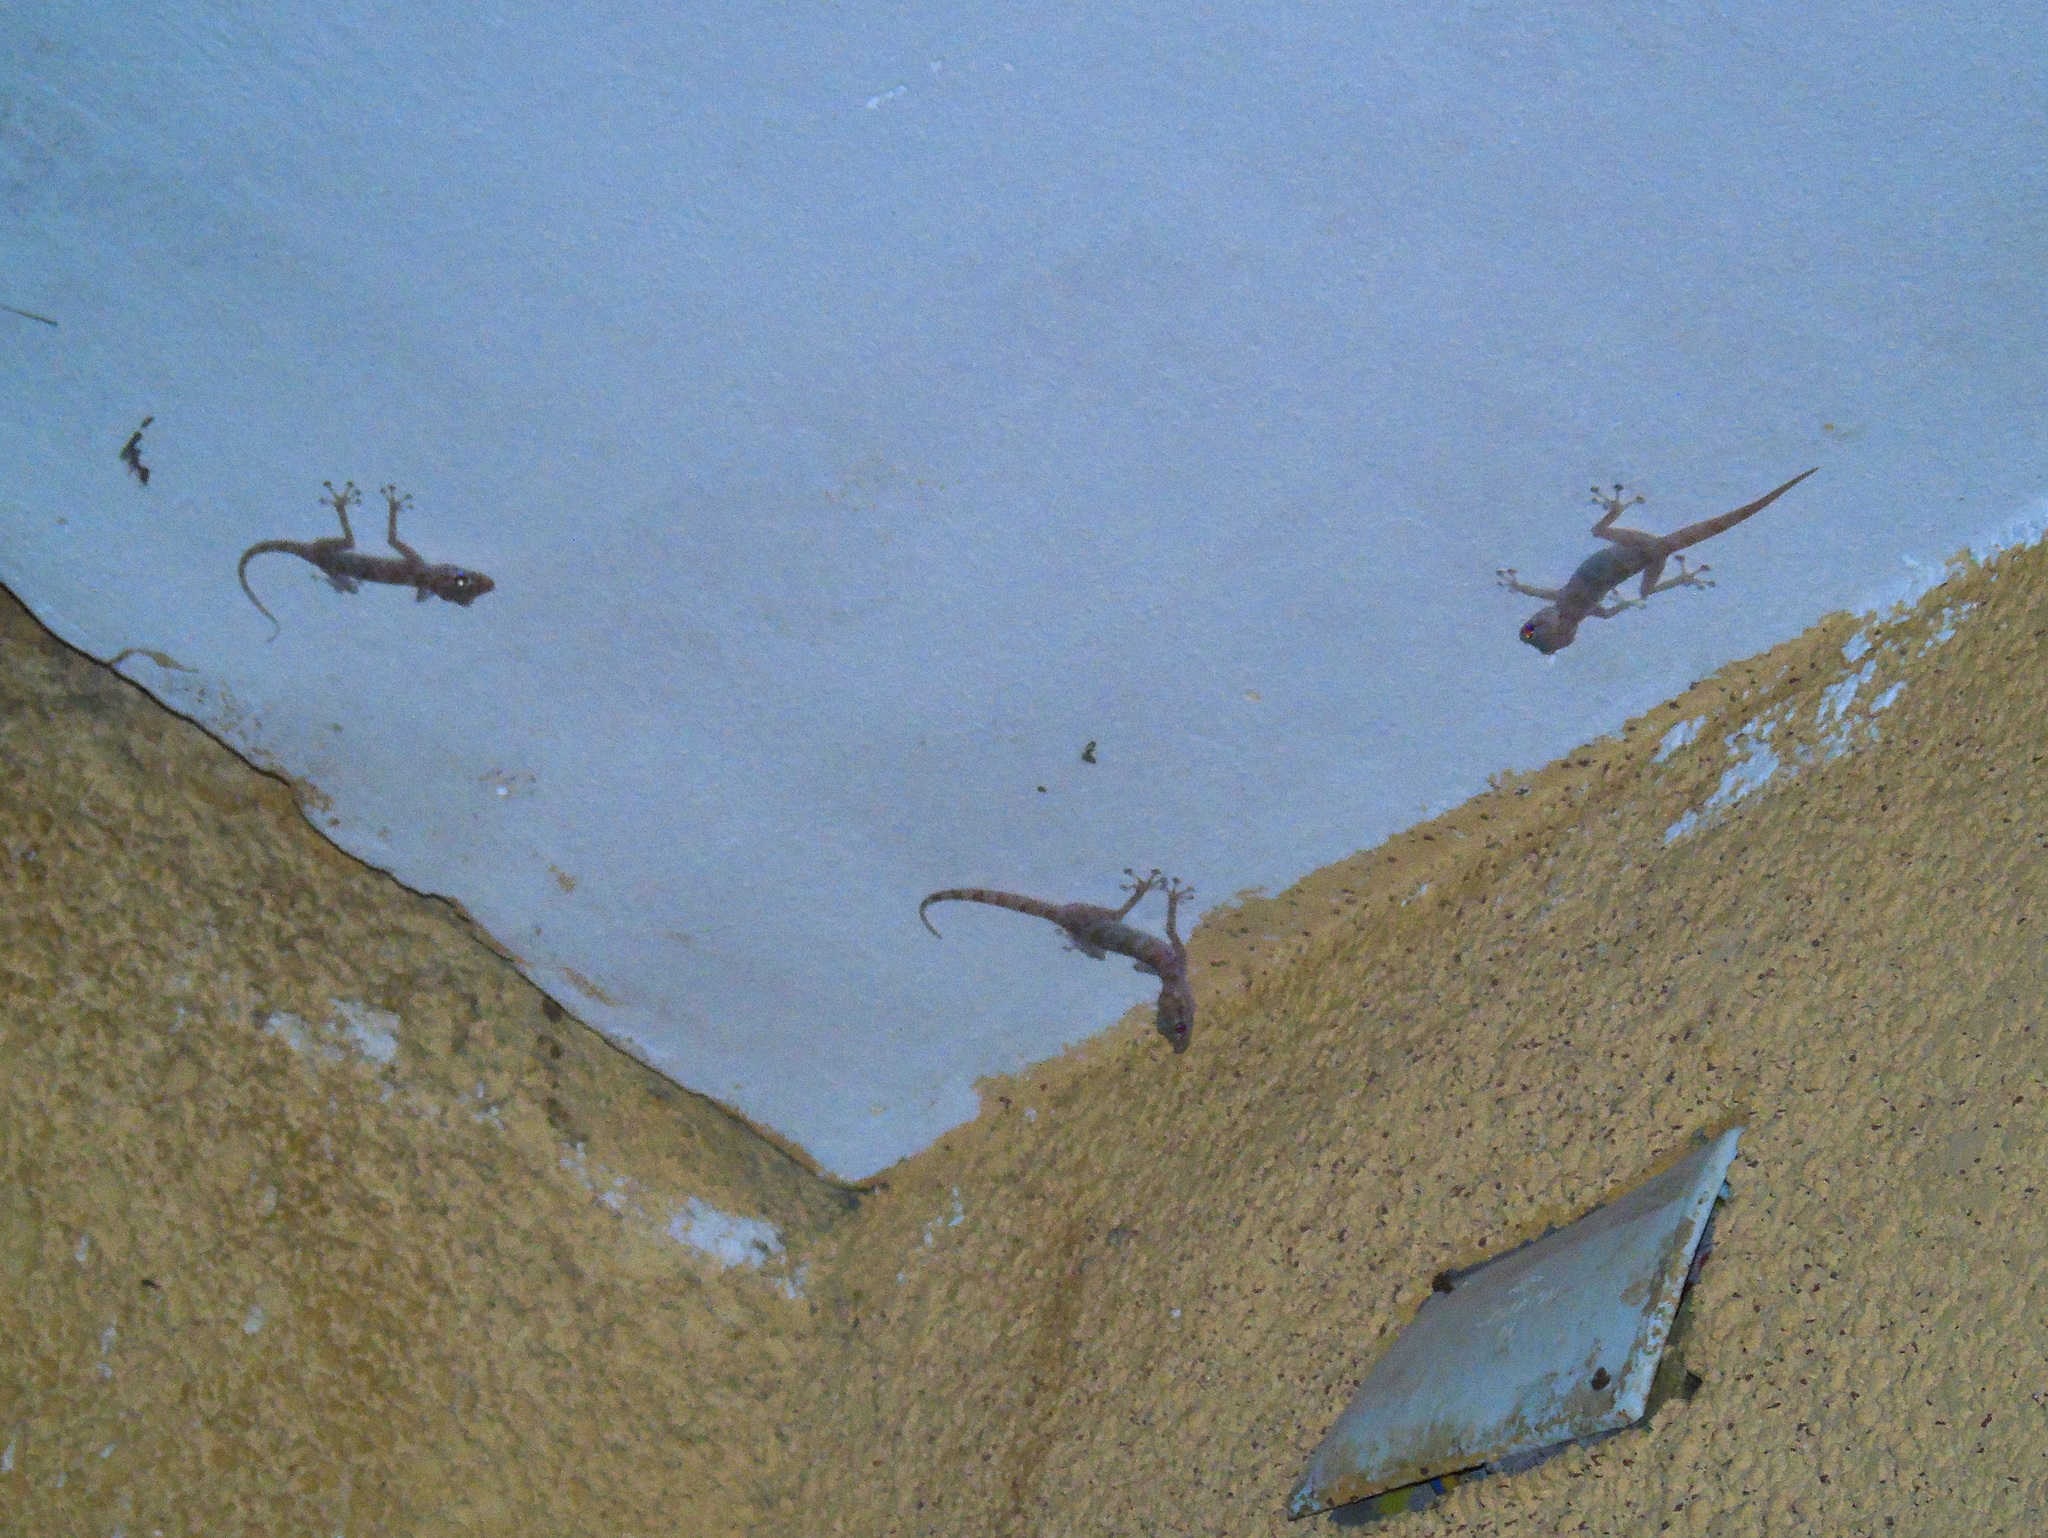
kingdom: Animalia
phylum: Chordata
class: Squamata
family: Phyllodactylidae
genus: Ptyodactylus
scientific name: Ptyodactylus hasselquistii
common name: Hasselquist’s fan-footed gecko
